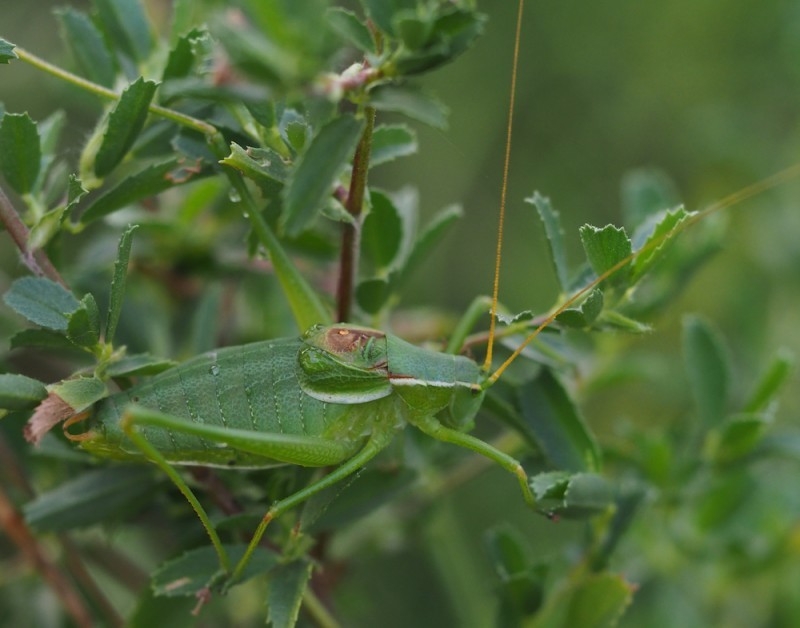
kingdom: Animalia
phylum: Arthropoda
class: Insecta
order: Orthoptera
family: Tettigoniidae
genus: Isophya
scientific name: Isophya modesta
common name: Modest plump bush-cricket
